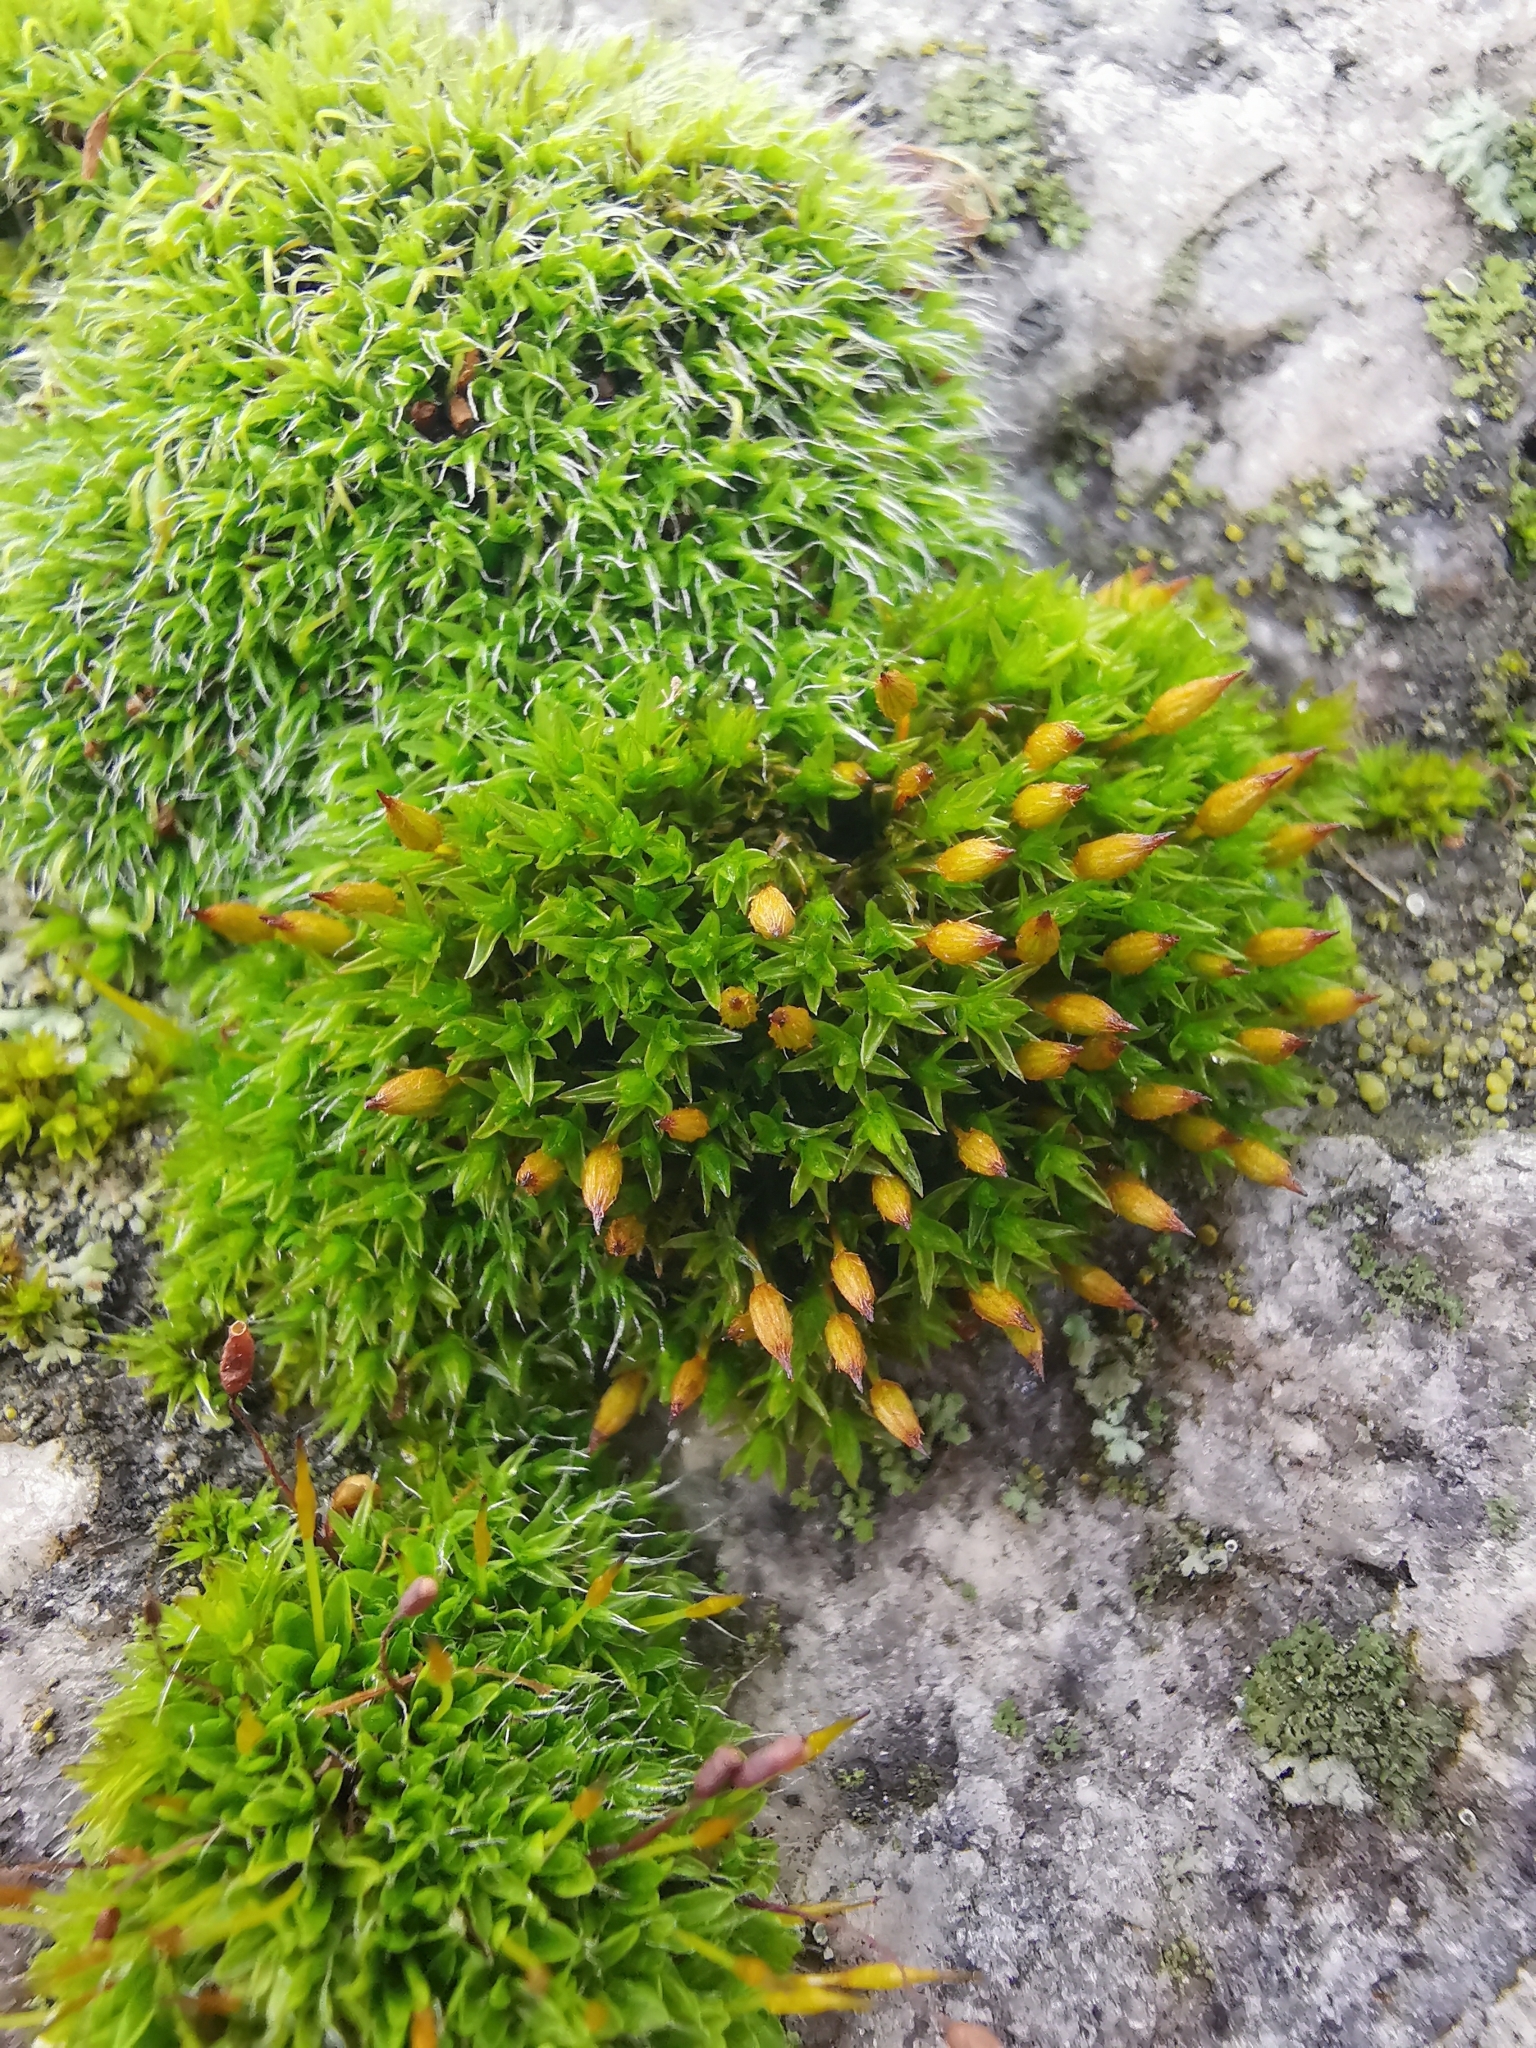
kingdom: Plantae
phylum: Bryophyta
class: Bryopsida
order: Orthotrichales
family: Orthotrichaceae
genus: Orthotrichum
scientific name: Orthotrichum anomalum
